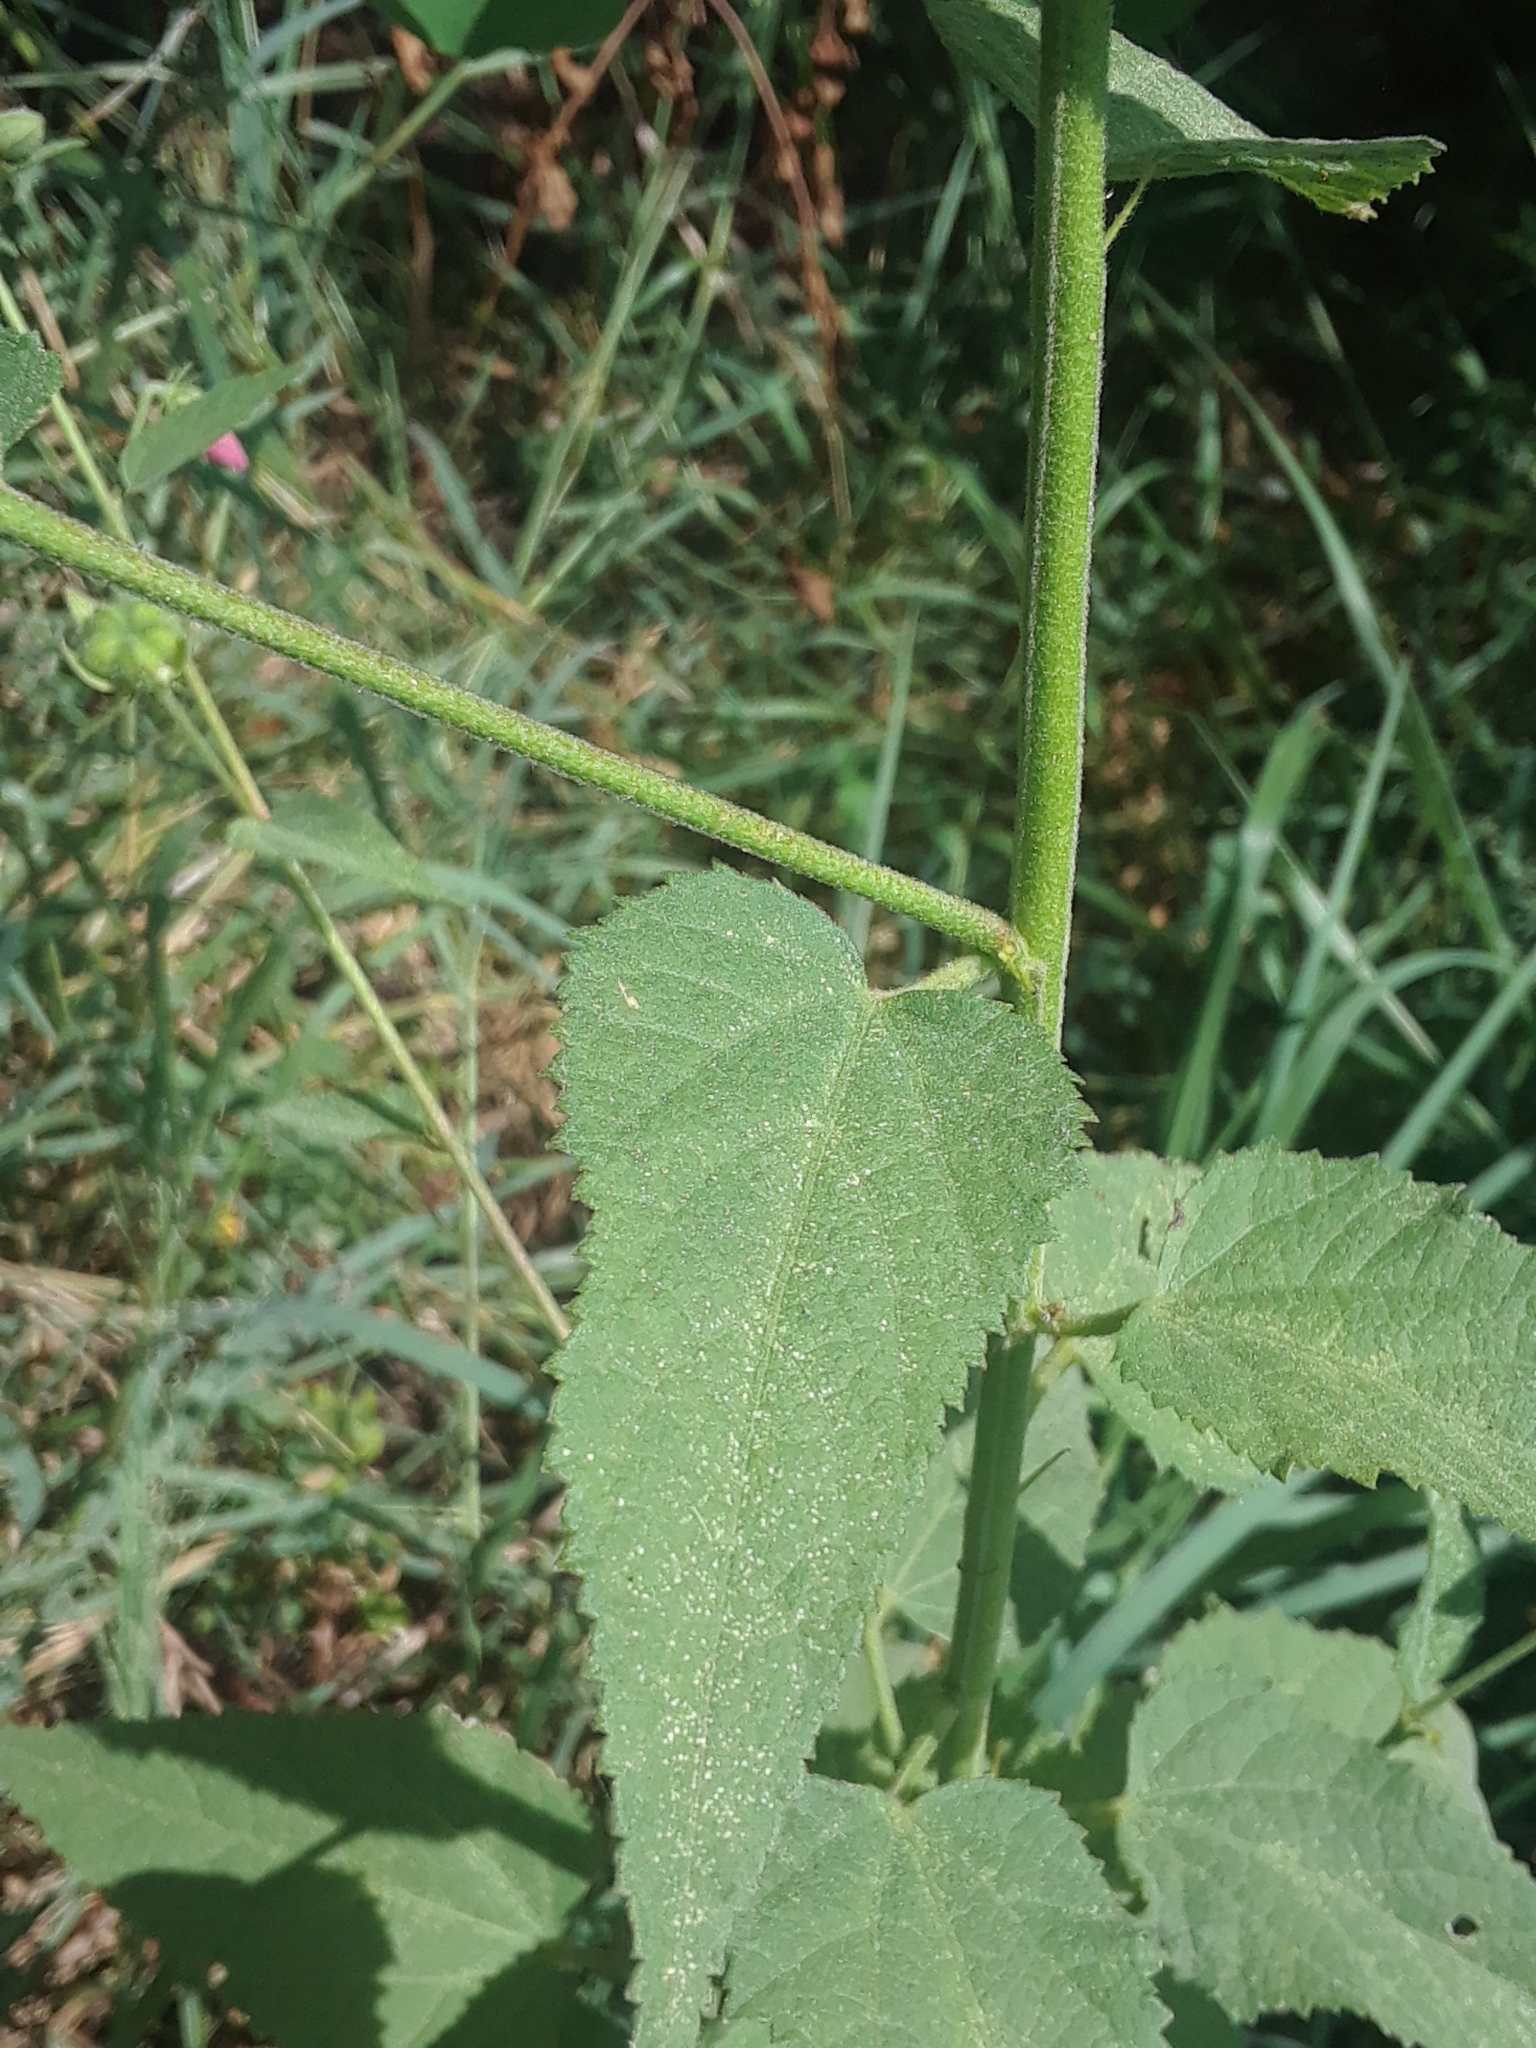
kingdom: Plantae
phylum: Tracheophyta
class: Magnoliopsida
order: Malvales
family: Malvaceae
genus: Kosteletzkya
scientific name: Kosteletzkya pentacarpos
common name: Virginia saltmarsh mallow
